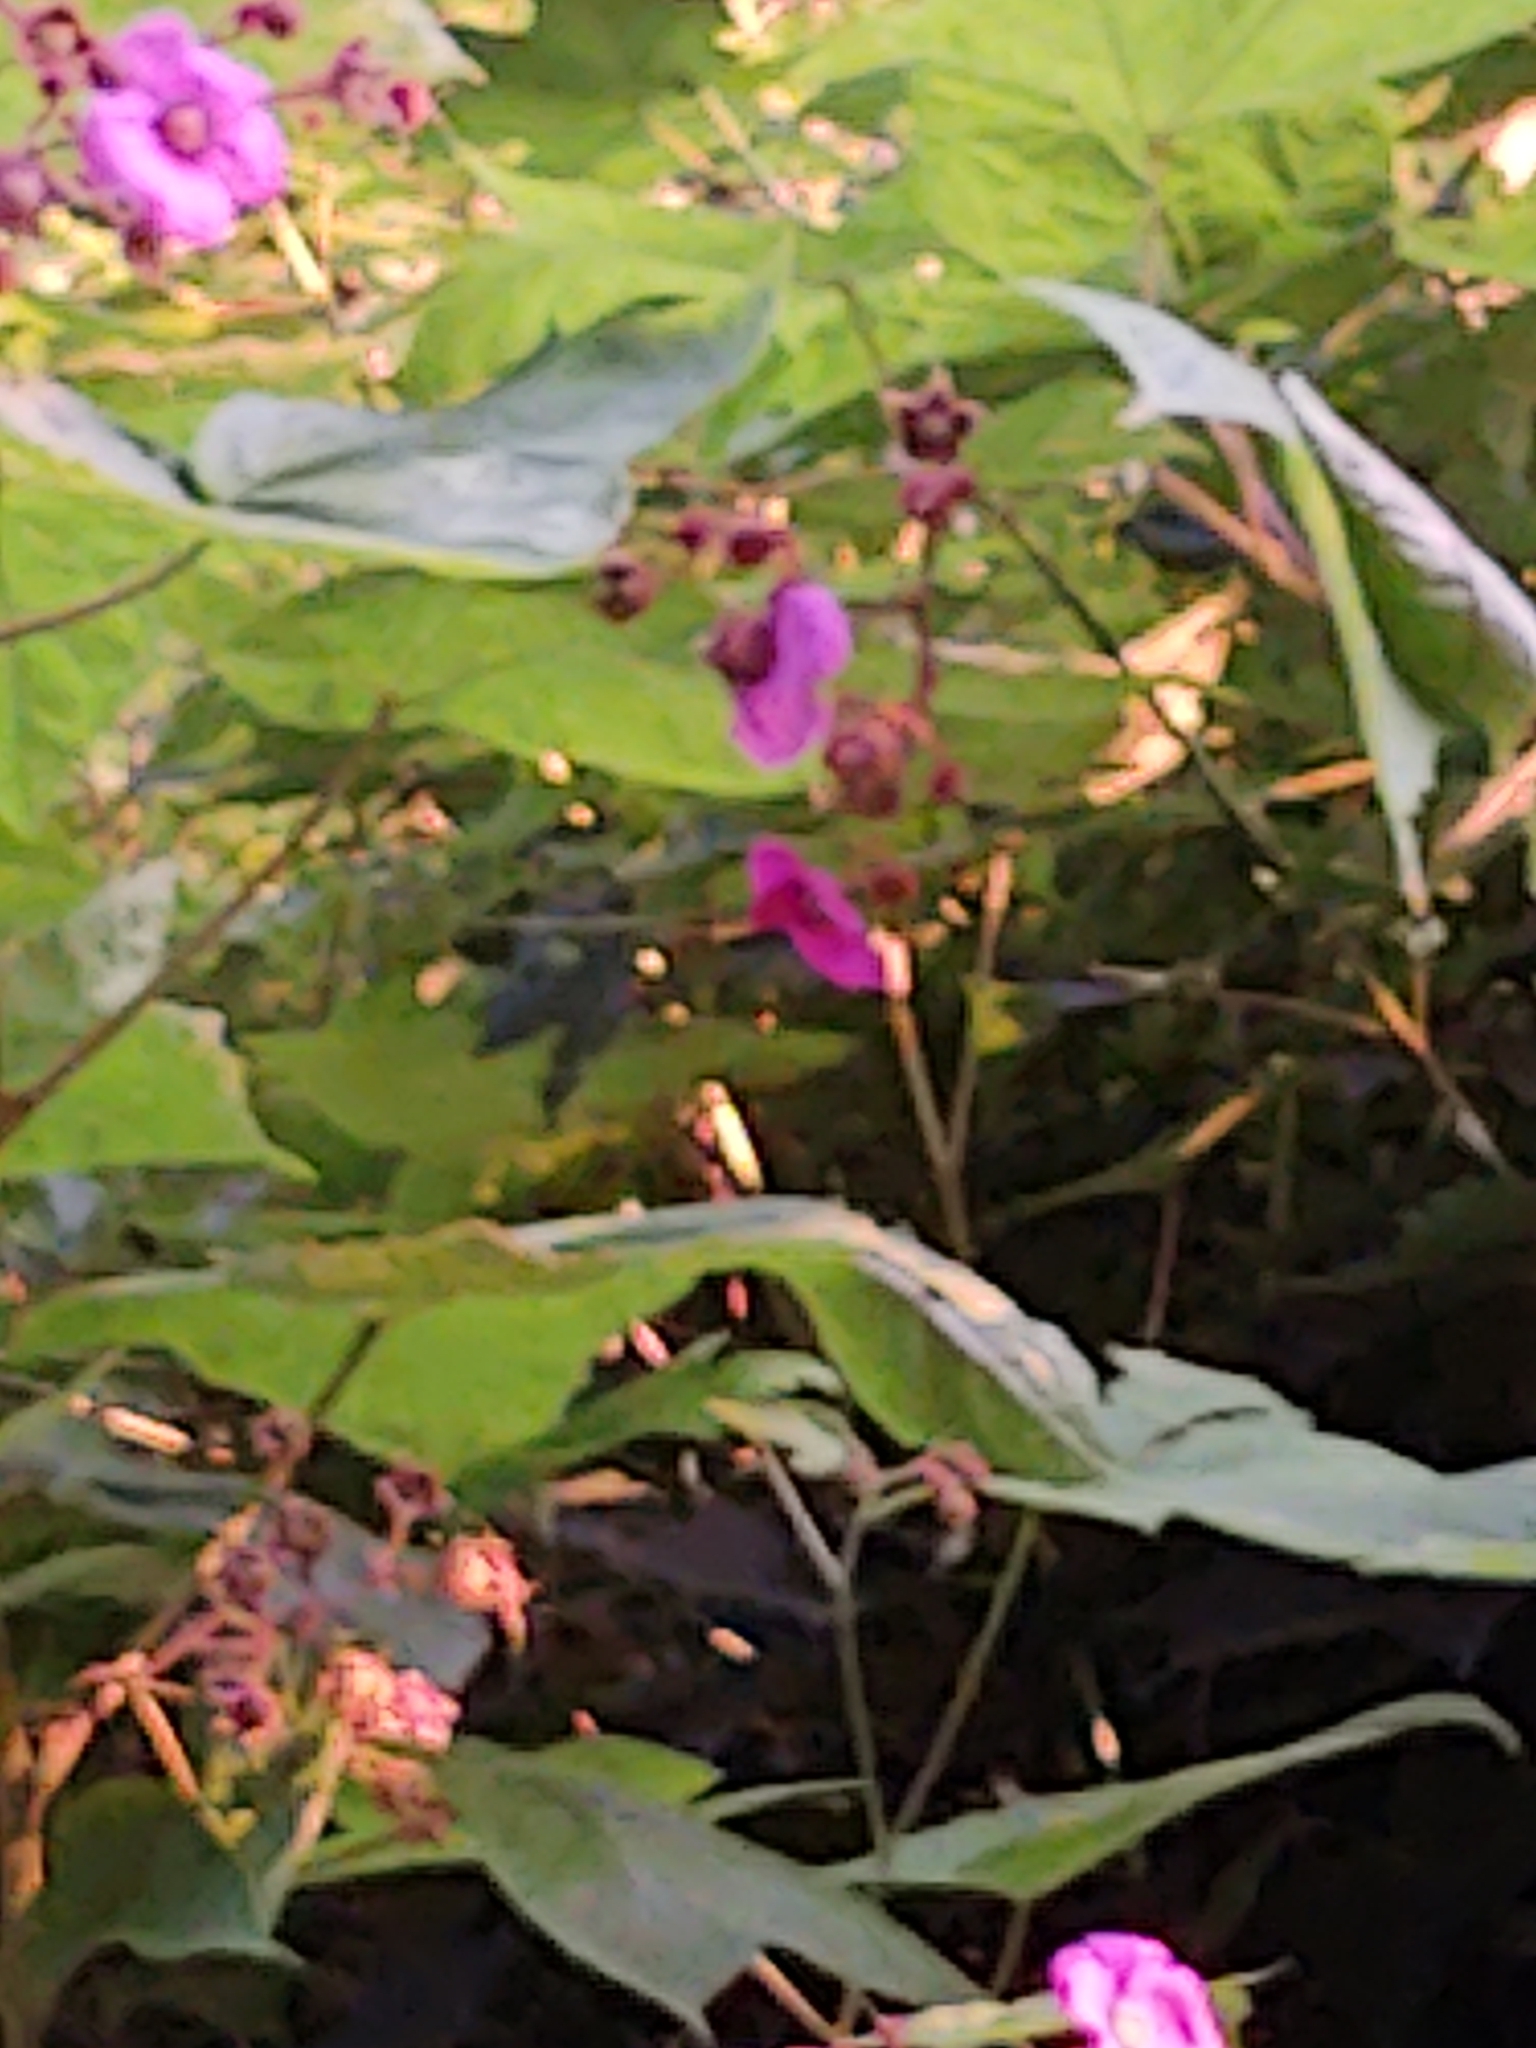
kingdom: Plantae
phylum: Tracheophyta
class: Magnoliopsida
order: Rosales
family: Rosaceae
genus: Rubus
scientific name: Rubus odoratus
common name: Purple-flowered raspberry
